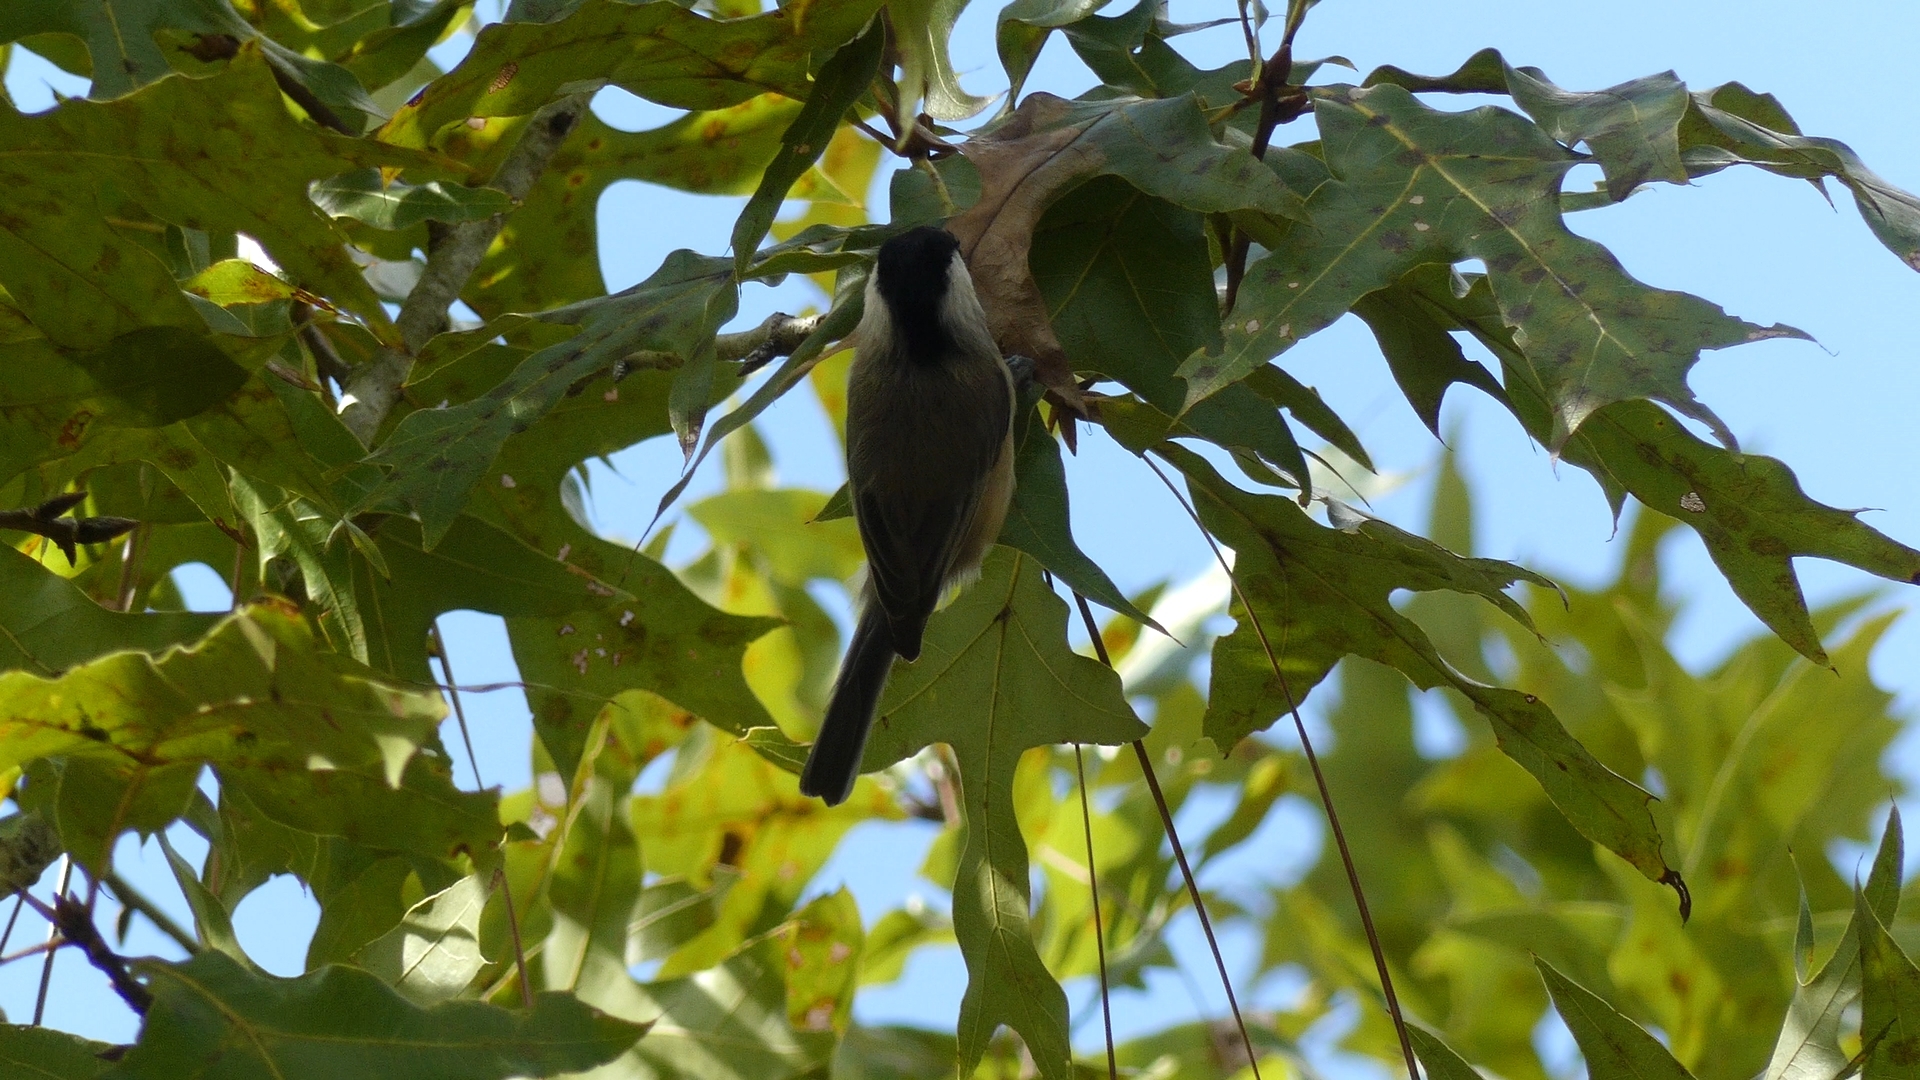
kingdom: Animalia
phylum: Chordata
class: Aves
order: Passeriformes
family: Paridae
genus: Poecile
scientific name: Poecile carolinensis
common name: Carolina chickadee
